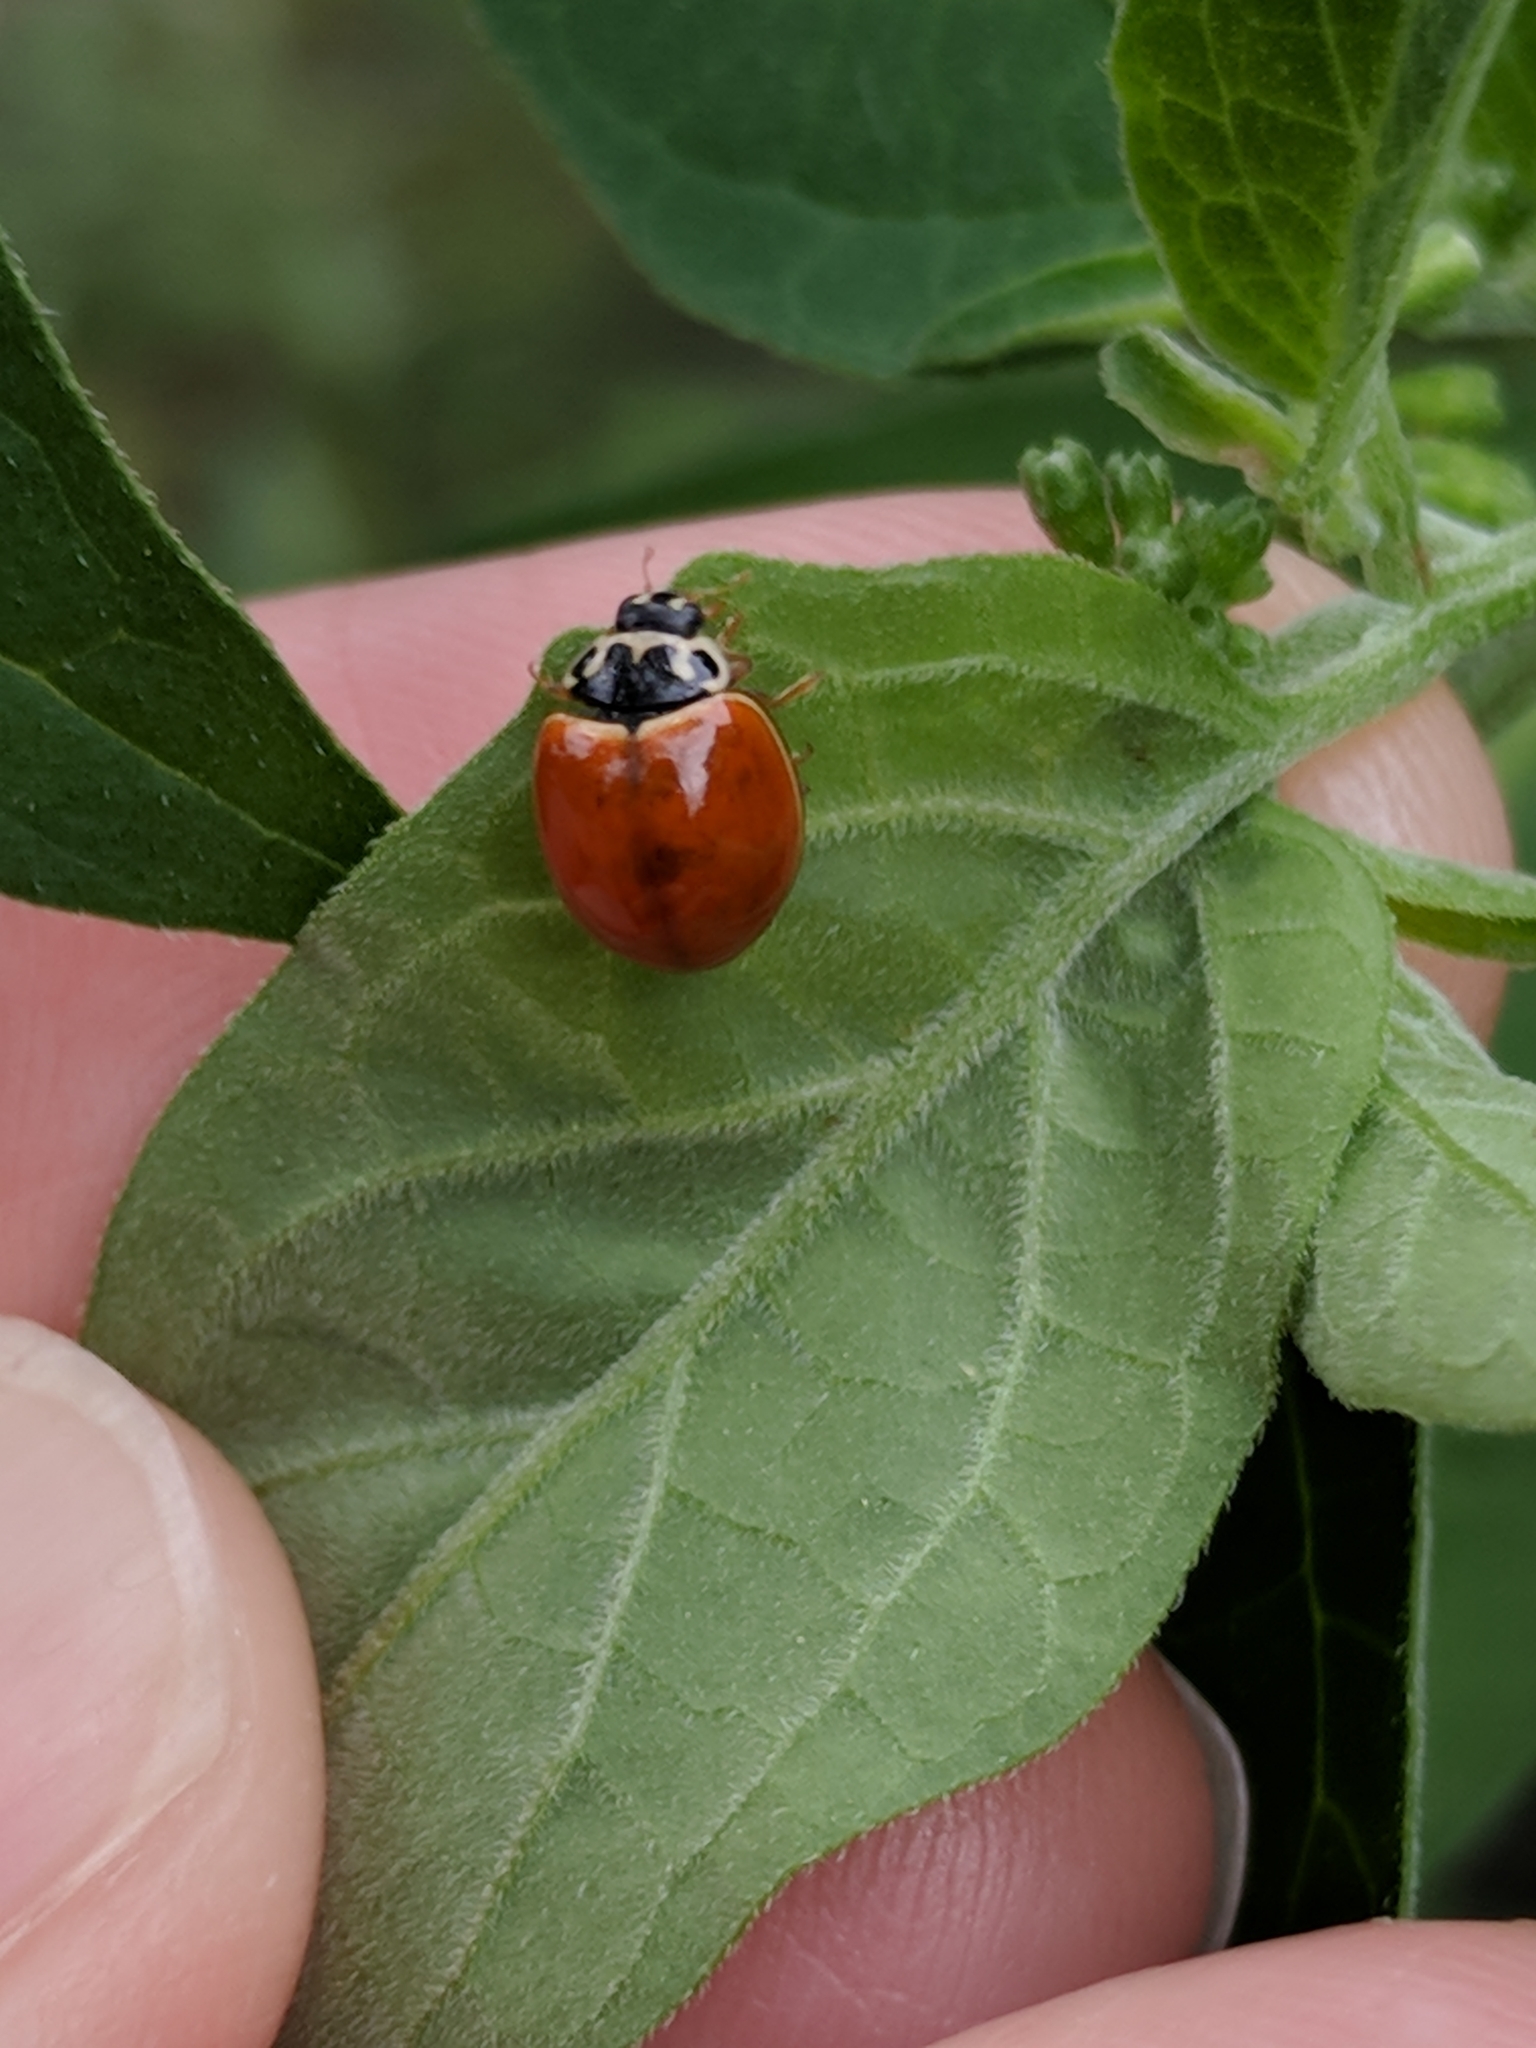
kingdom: Animalia
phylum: Arthropoda
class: Insecta
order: Coleoptera
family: Coccinellidae
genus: Cycloneda
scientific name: Cycloneda munda
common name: Polished lady beetle
